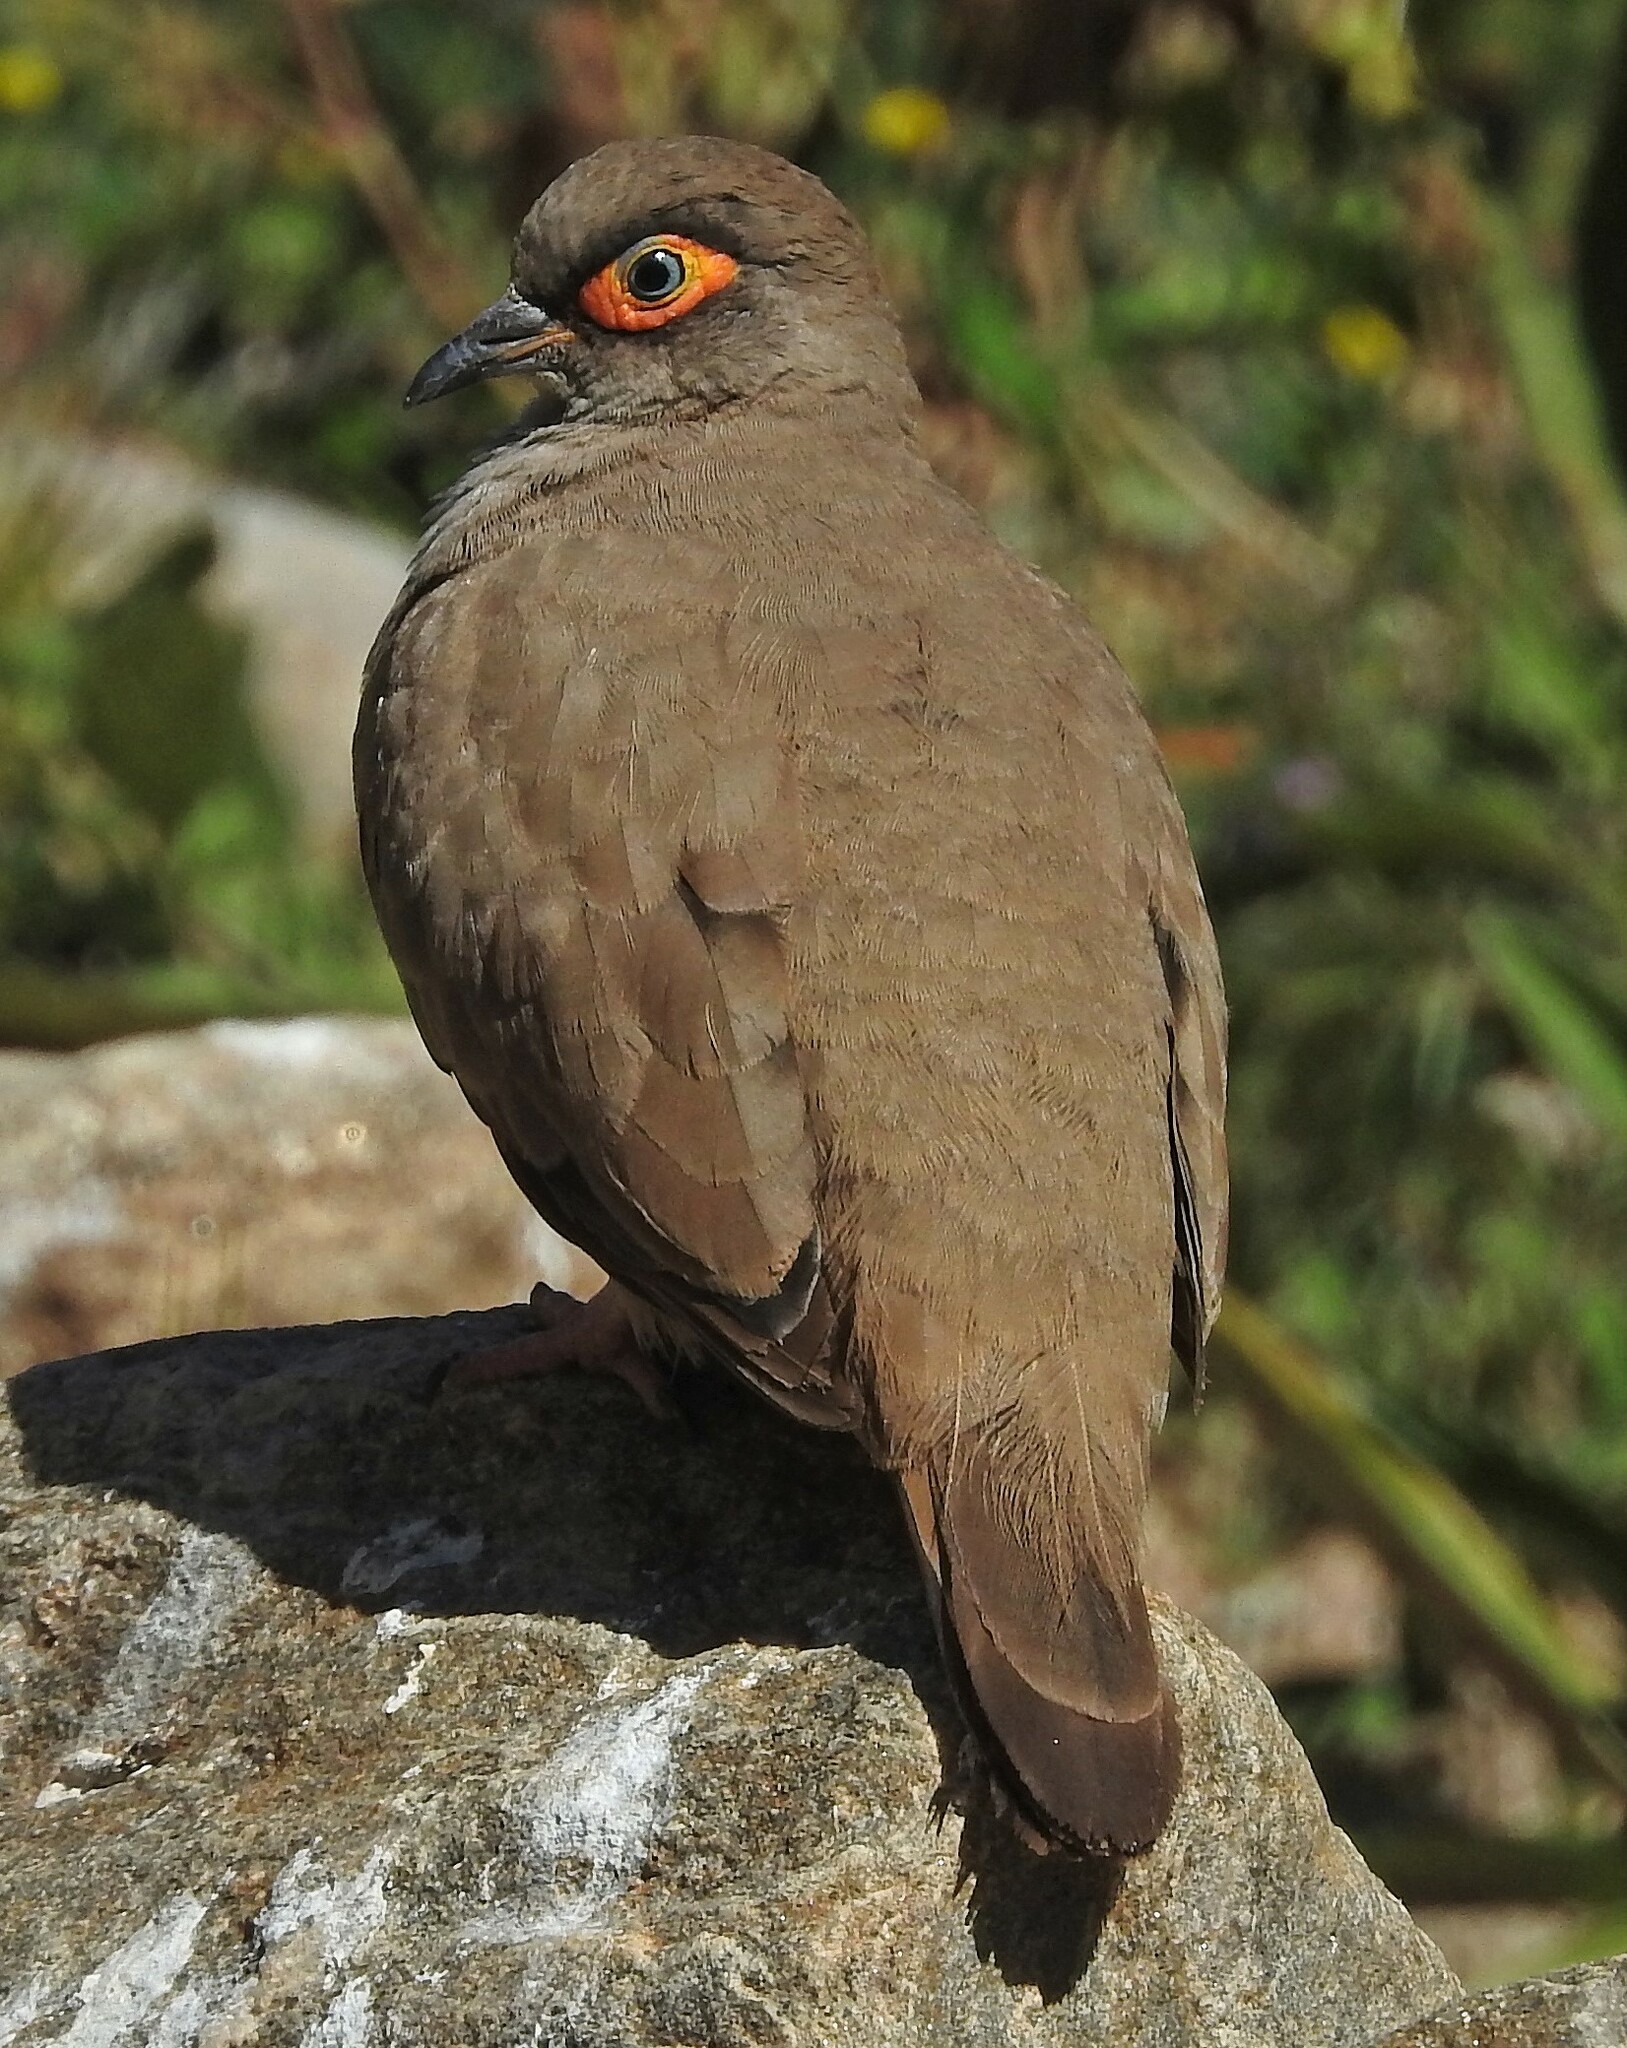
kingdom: Animalia
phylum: Chordata
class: Aves
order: Columbiformes
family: Columbidae
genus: Metriopelia
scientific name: Metriopelia morenoi
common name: Moreno's ground dove
